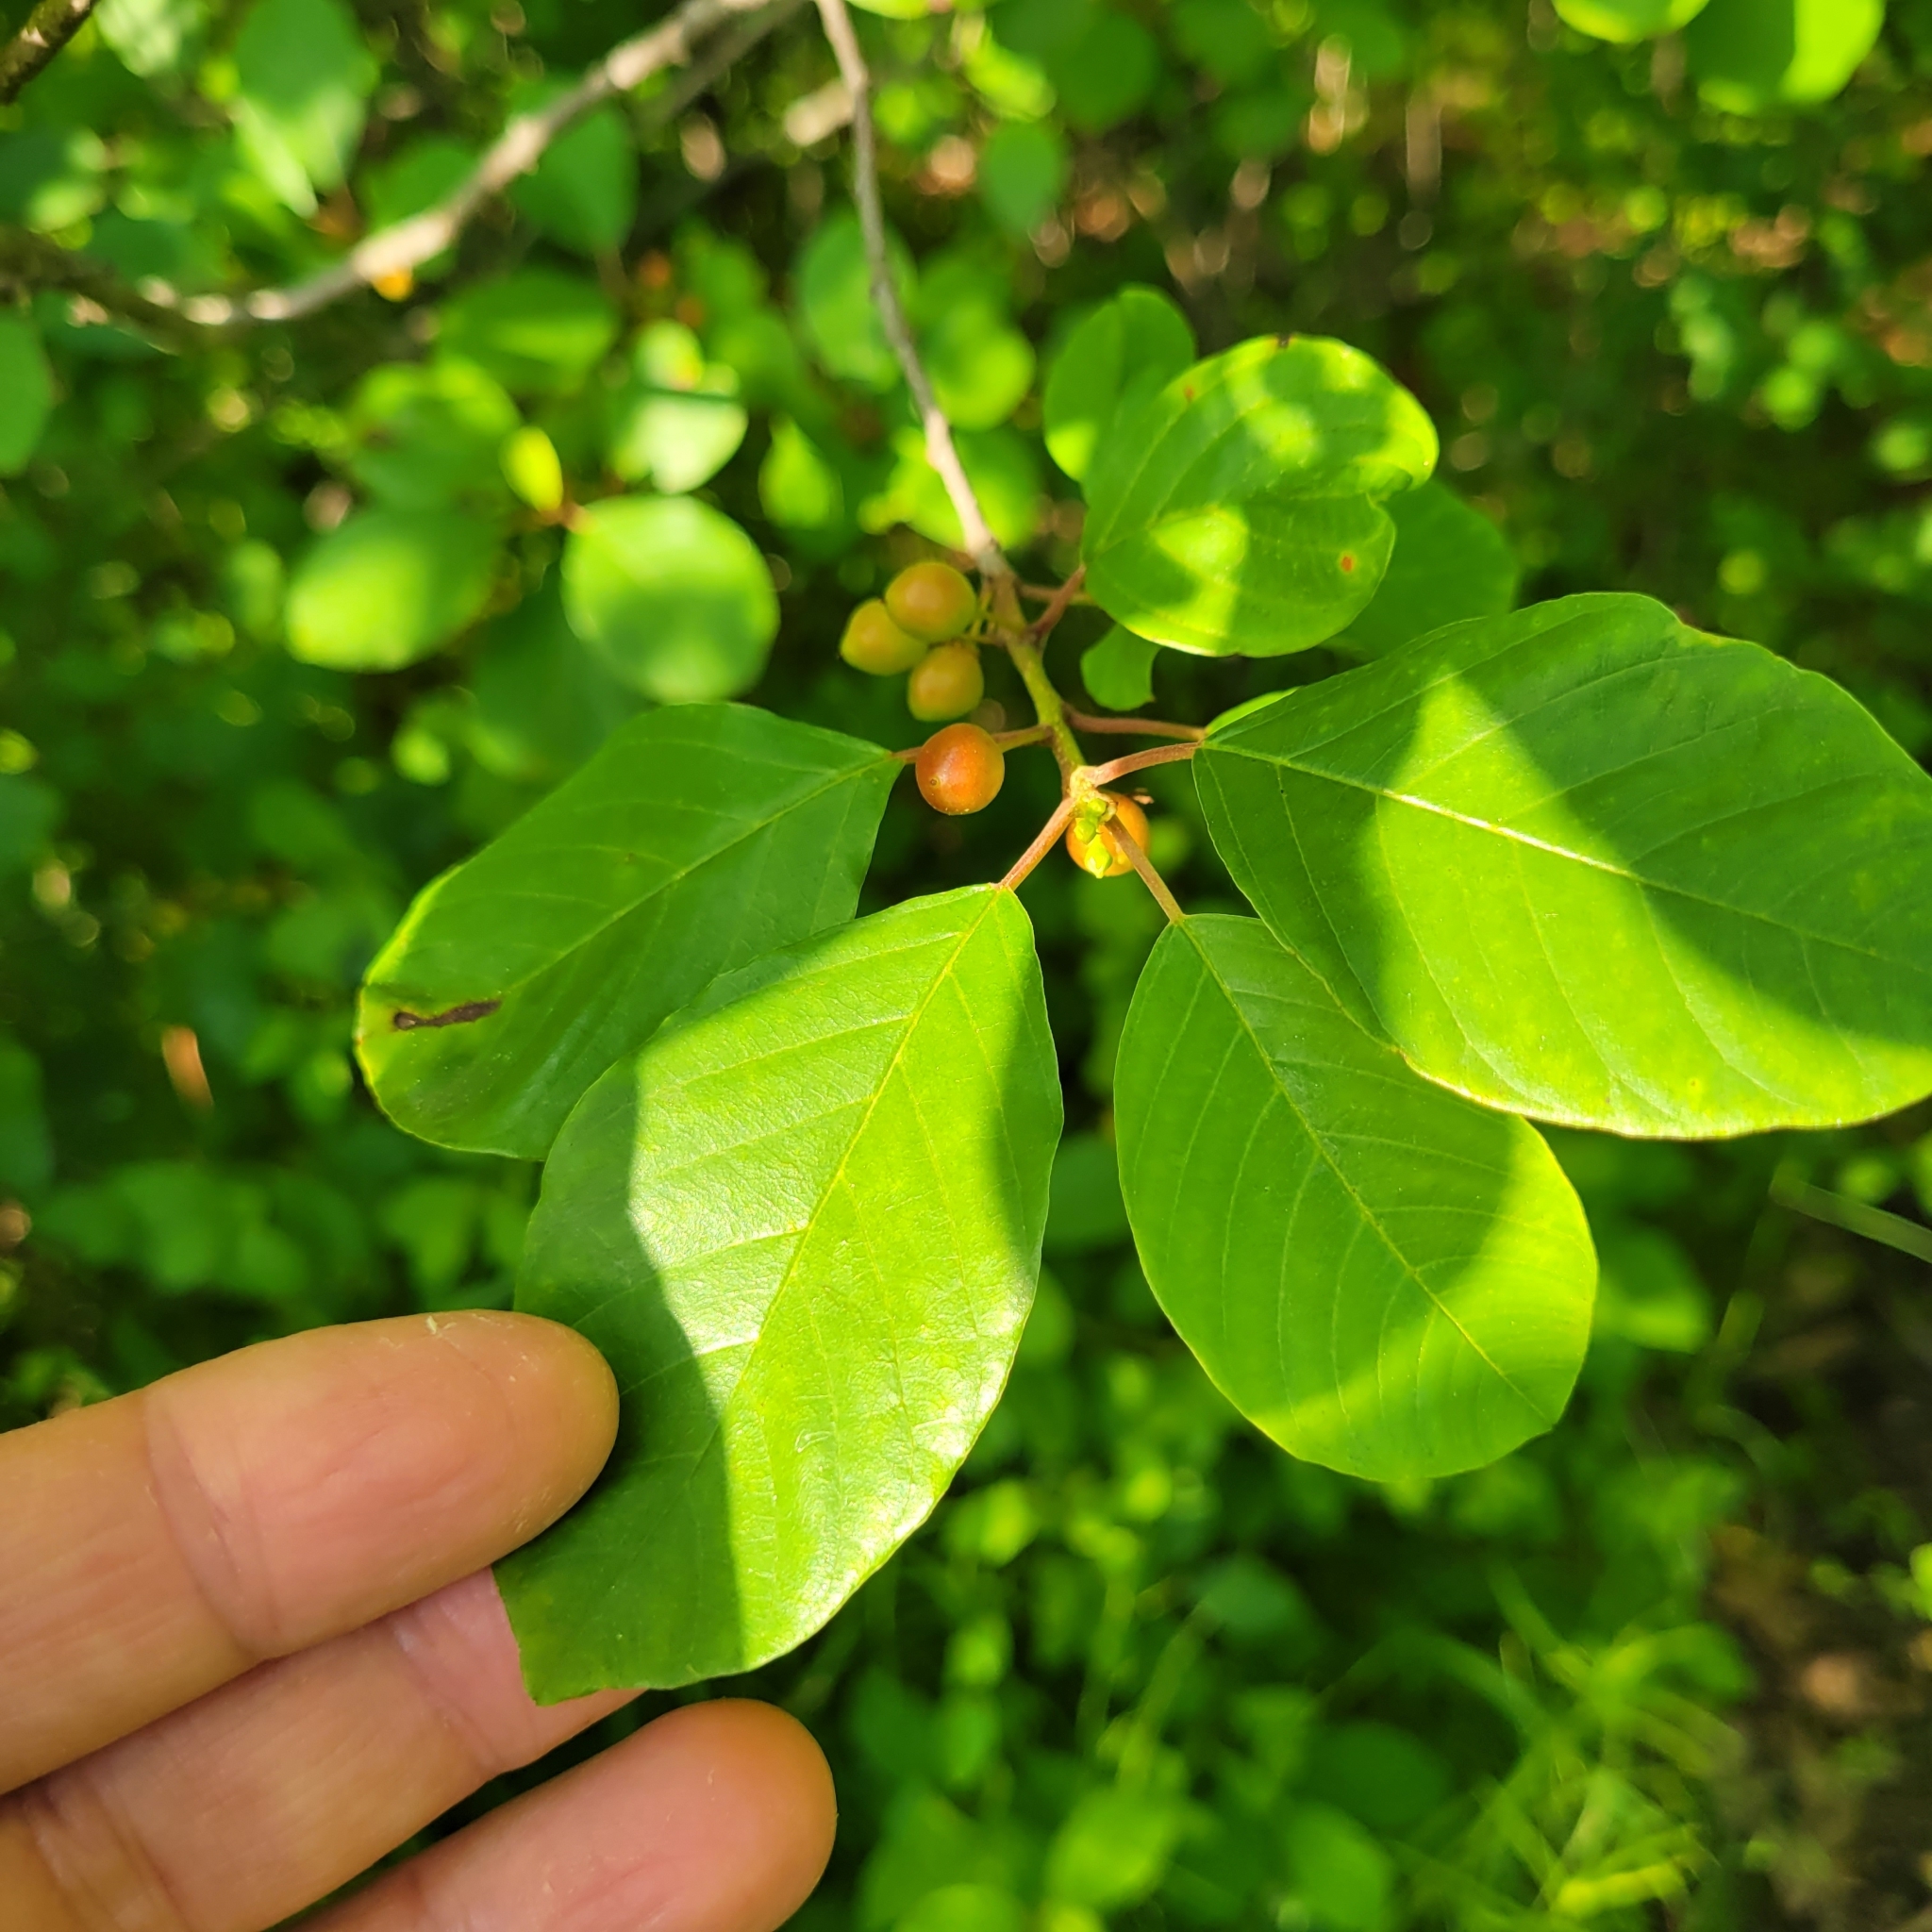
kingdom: Plantae
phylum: Tracheophyta
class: Magnoliopsida
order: Rosales
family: Rhamnaceae
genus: Frangula
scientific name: Frangula alnus
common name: Alder buckthorn
